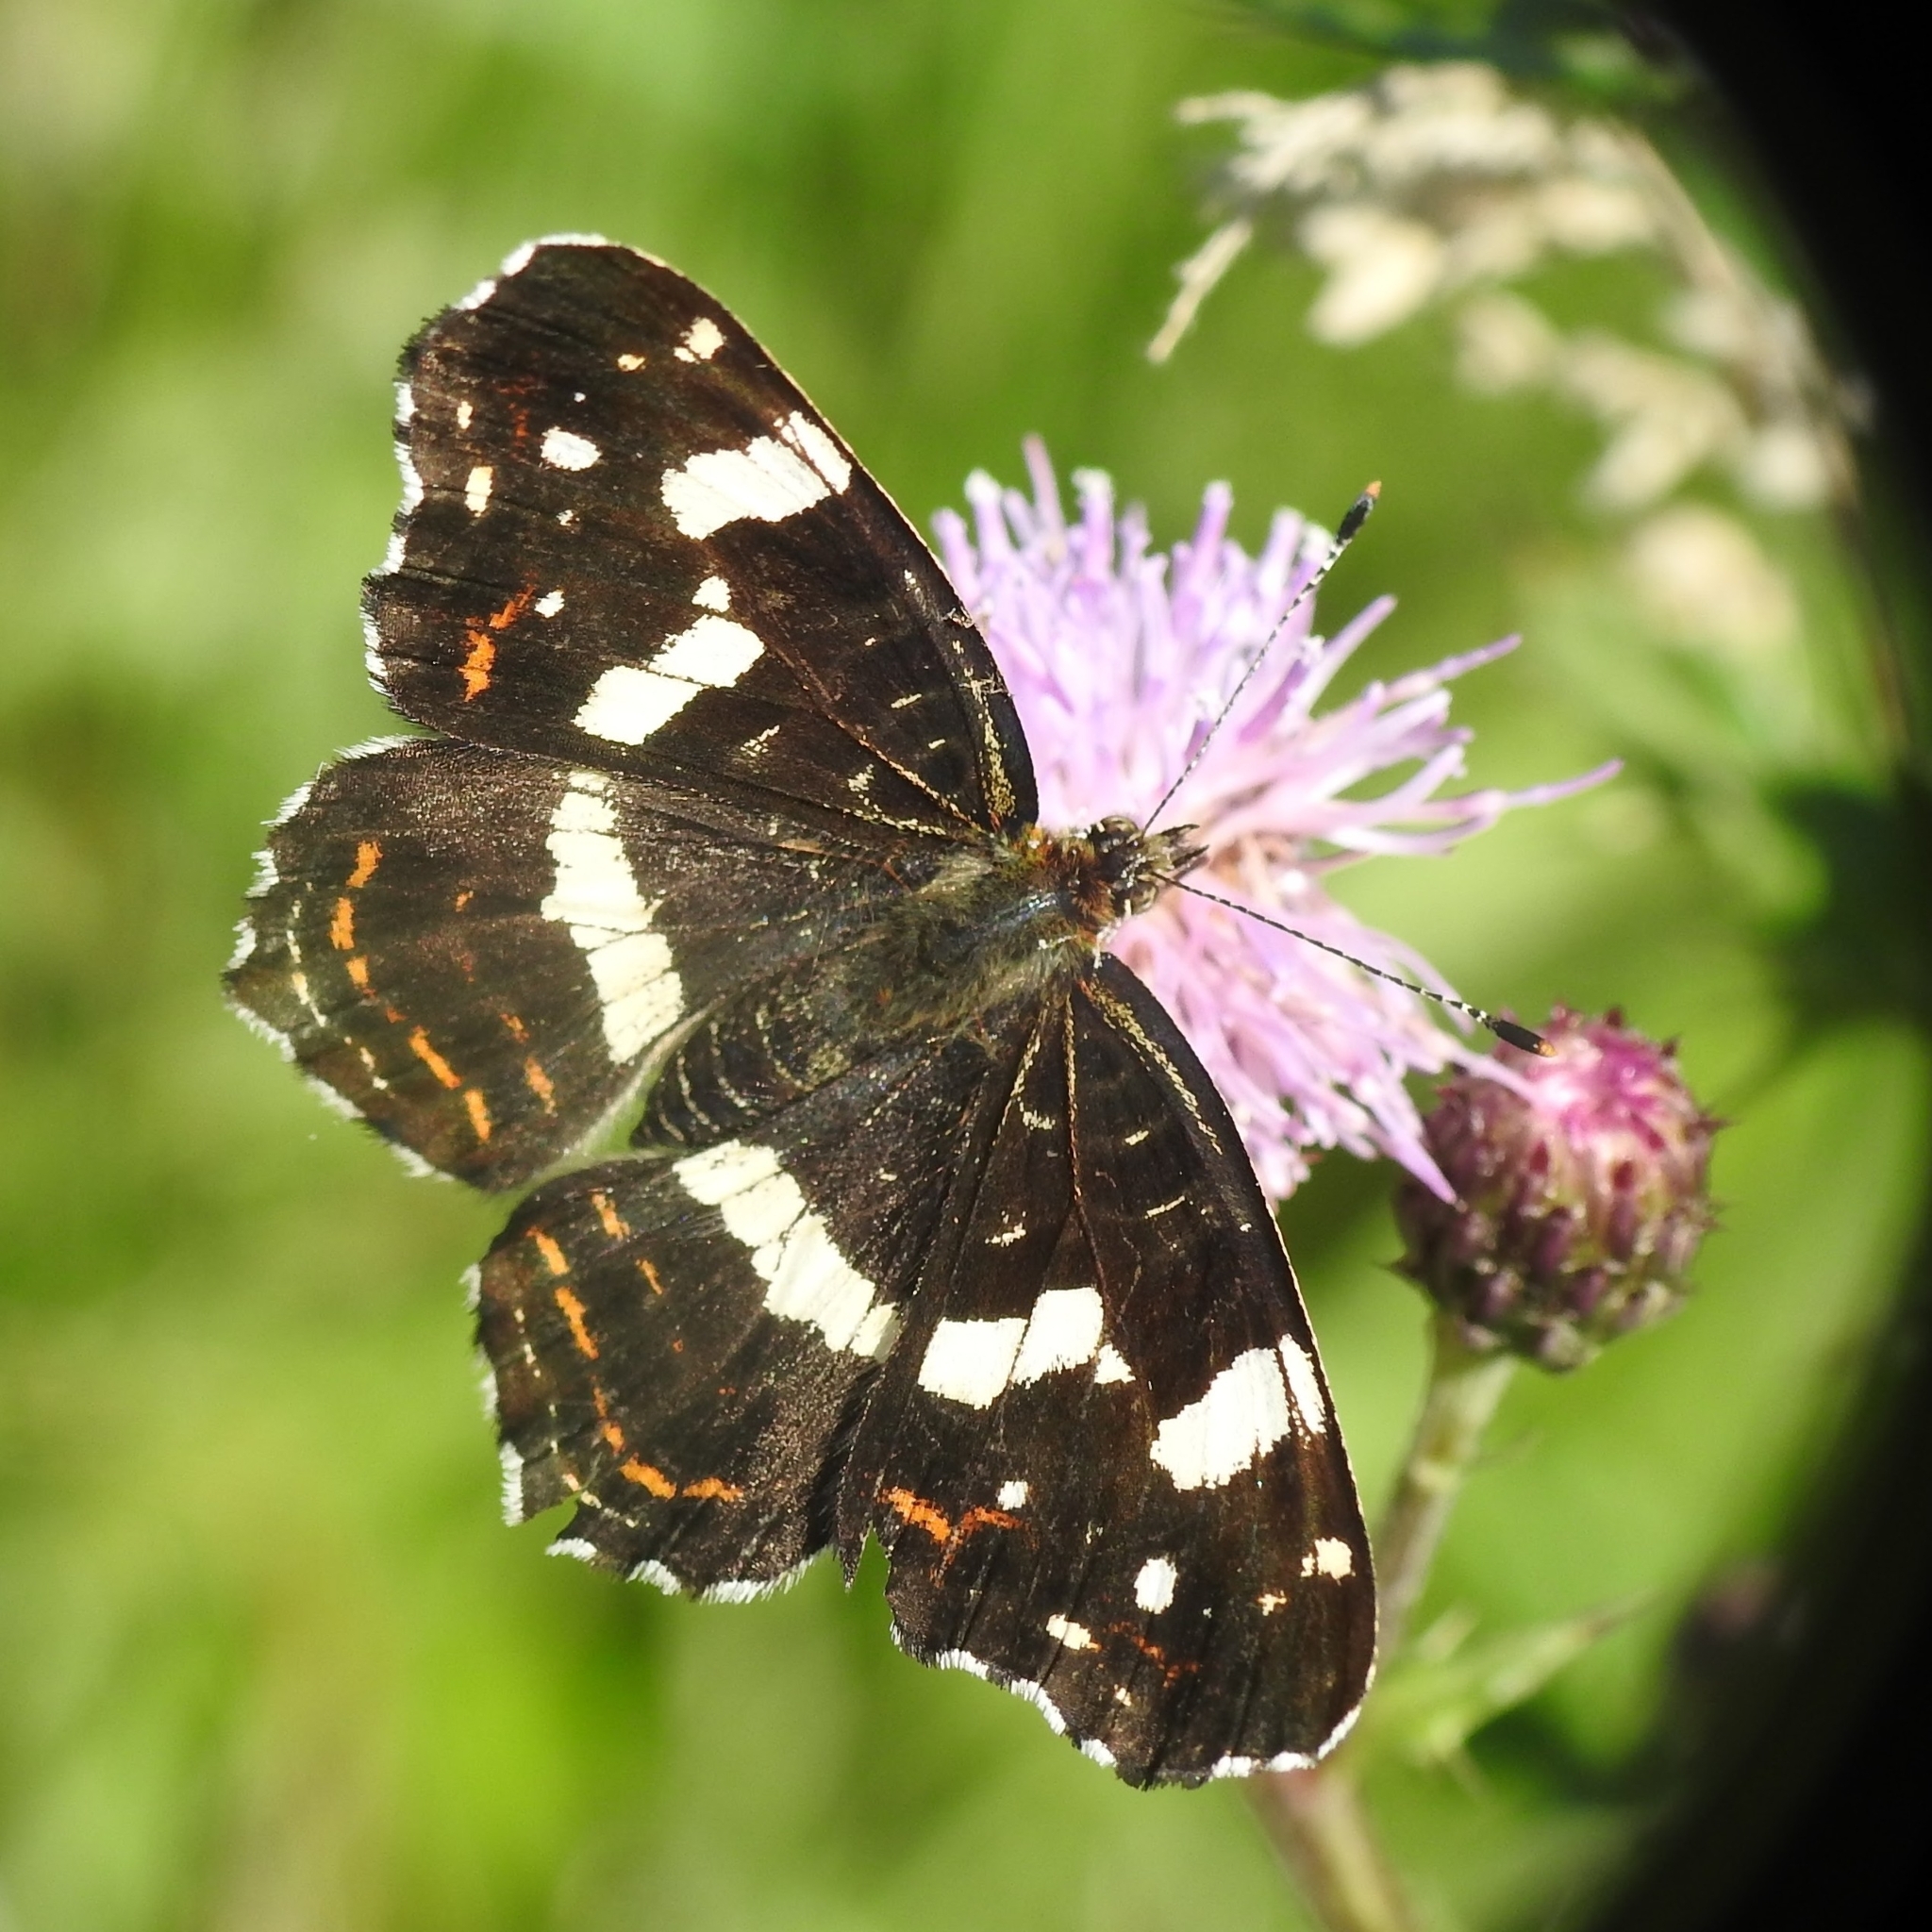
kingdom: Animalia
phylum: Arthropoda
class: Insecta
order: Lepidoptera
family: Nymphalidae
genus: Araschnia
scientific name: Araschnia levana
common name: Map butterfly
